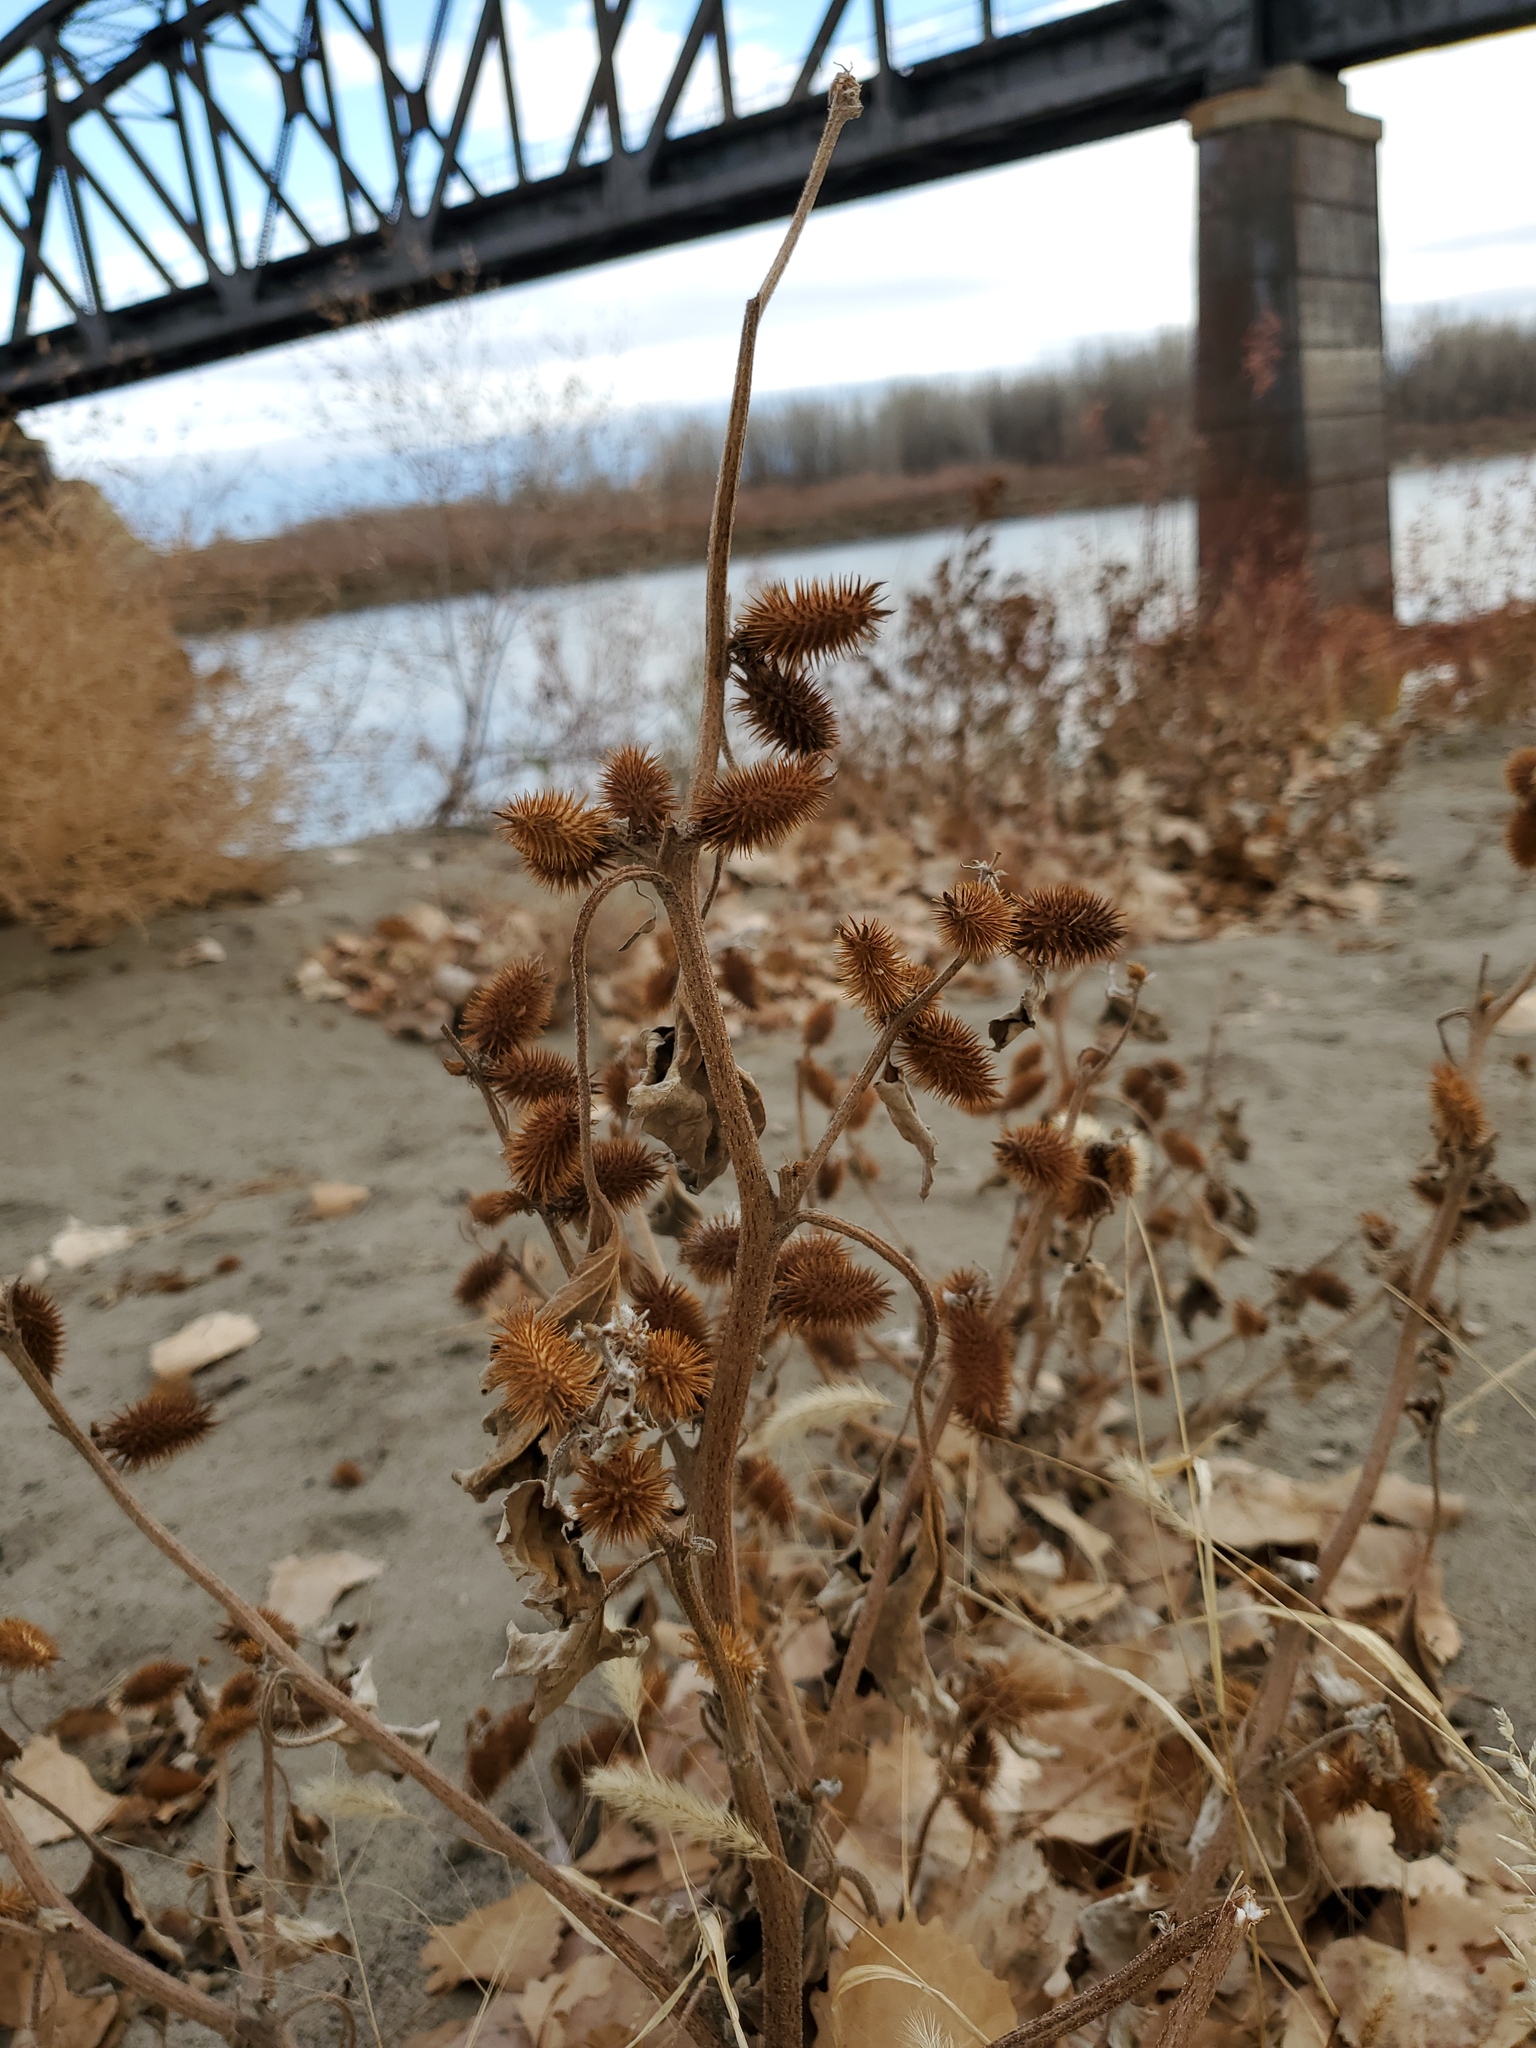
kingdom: Plantae
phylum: Tracheophyta
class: Magnoliopsida
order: Asterales
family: Asteraceae
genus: Xanthium
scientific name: Xanthium strumarium
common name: Rough cocklebur
